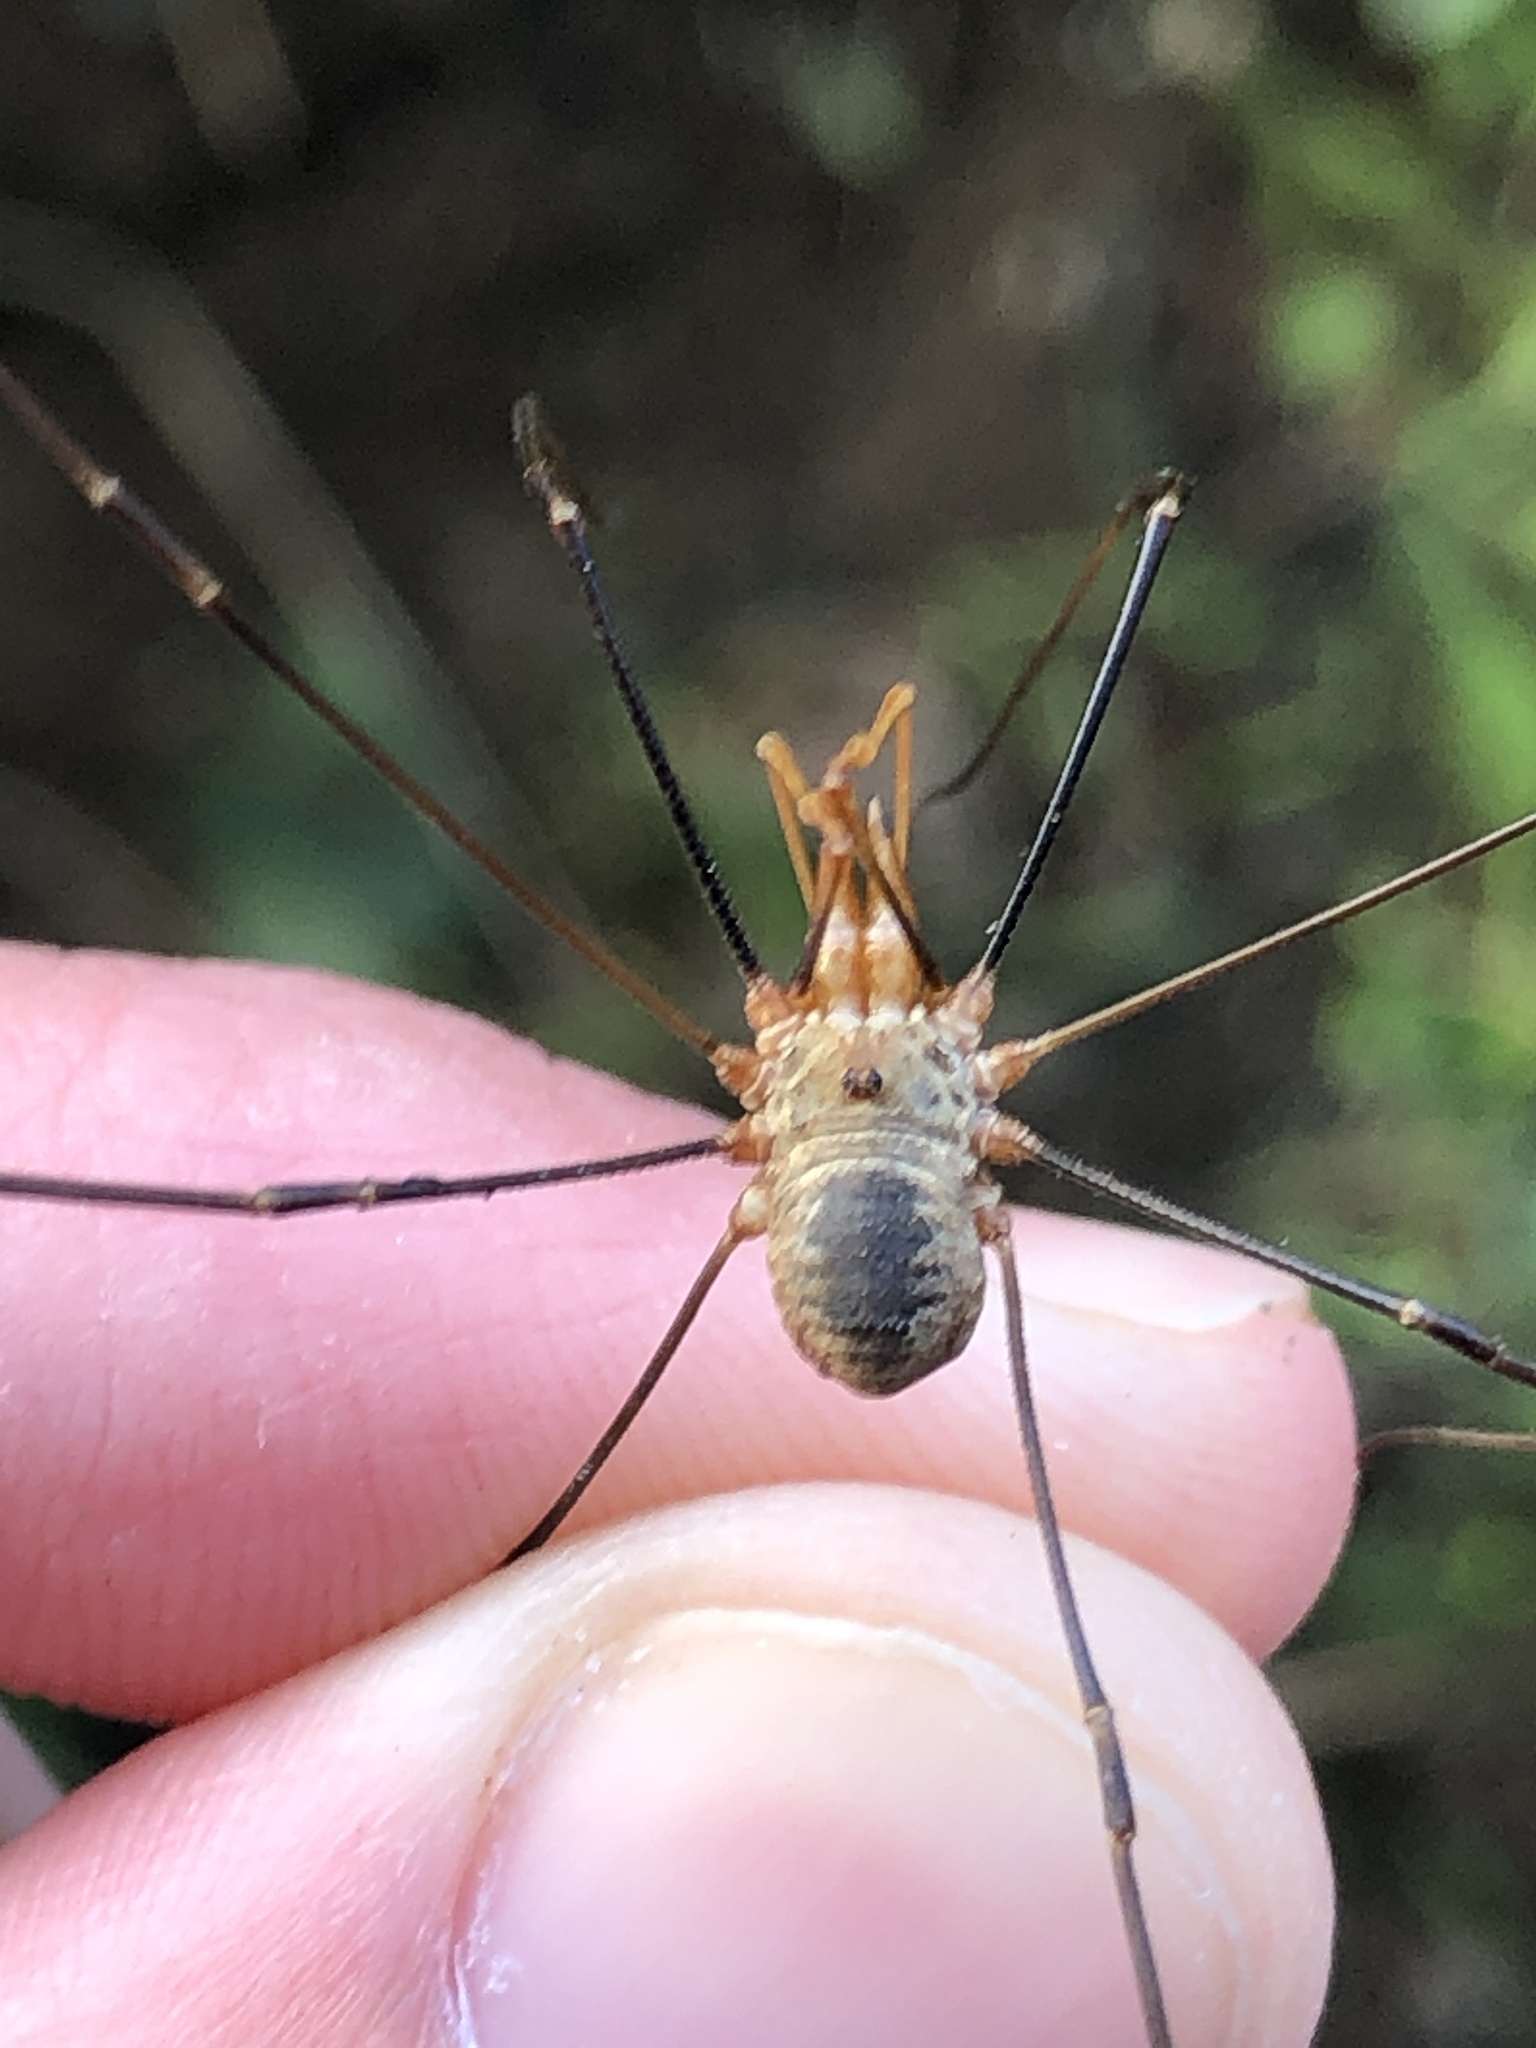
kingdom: Animalia
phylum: Arthropoda
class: Arachnida
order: Opiliones
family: Phalangiidae
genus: Phalangium
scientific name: Phalangium opilio
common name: Daddy longleg
